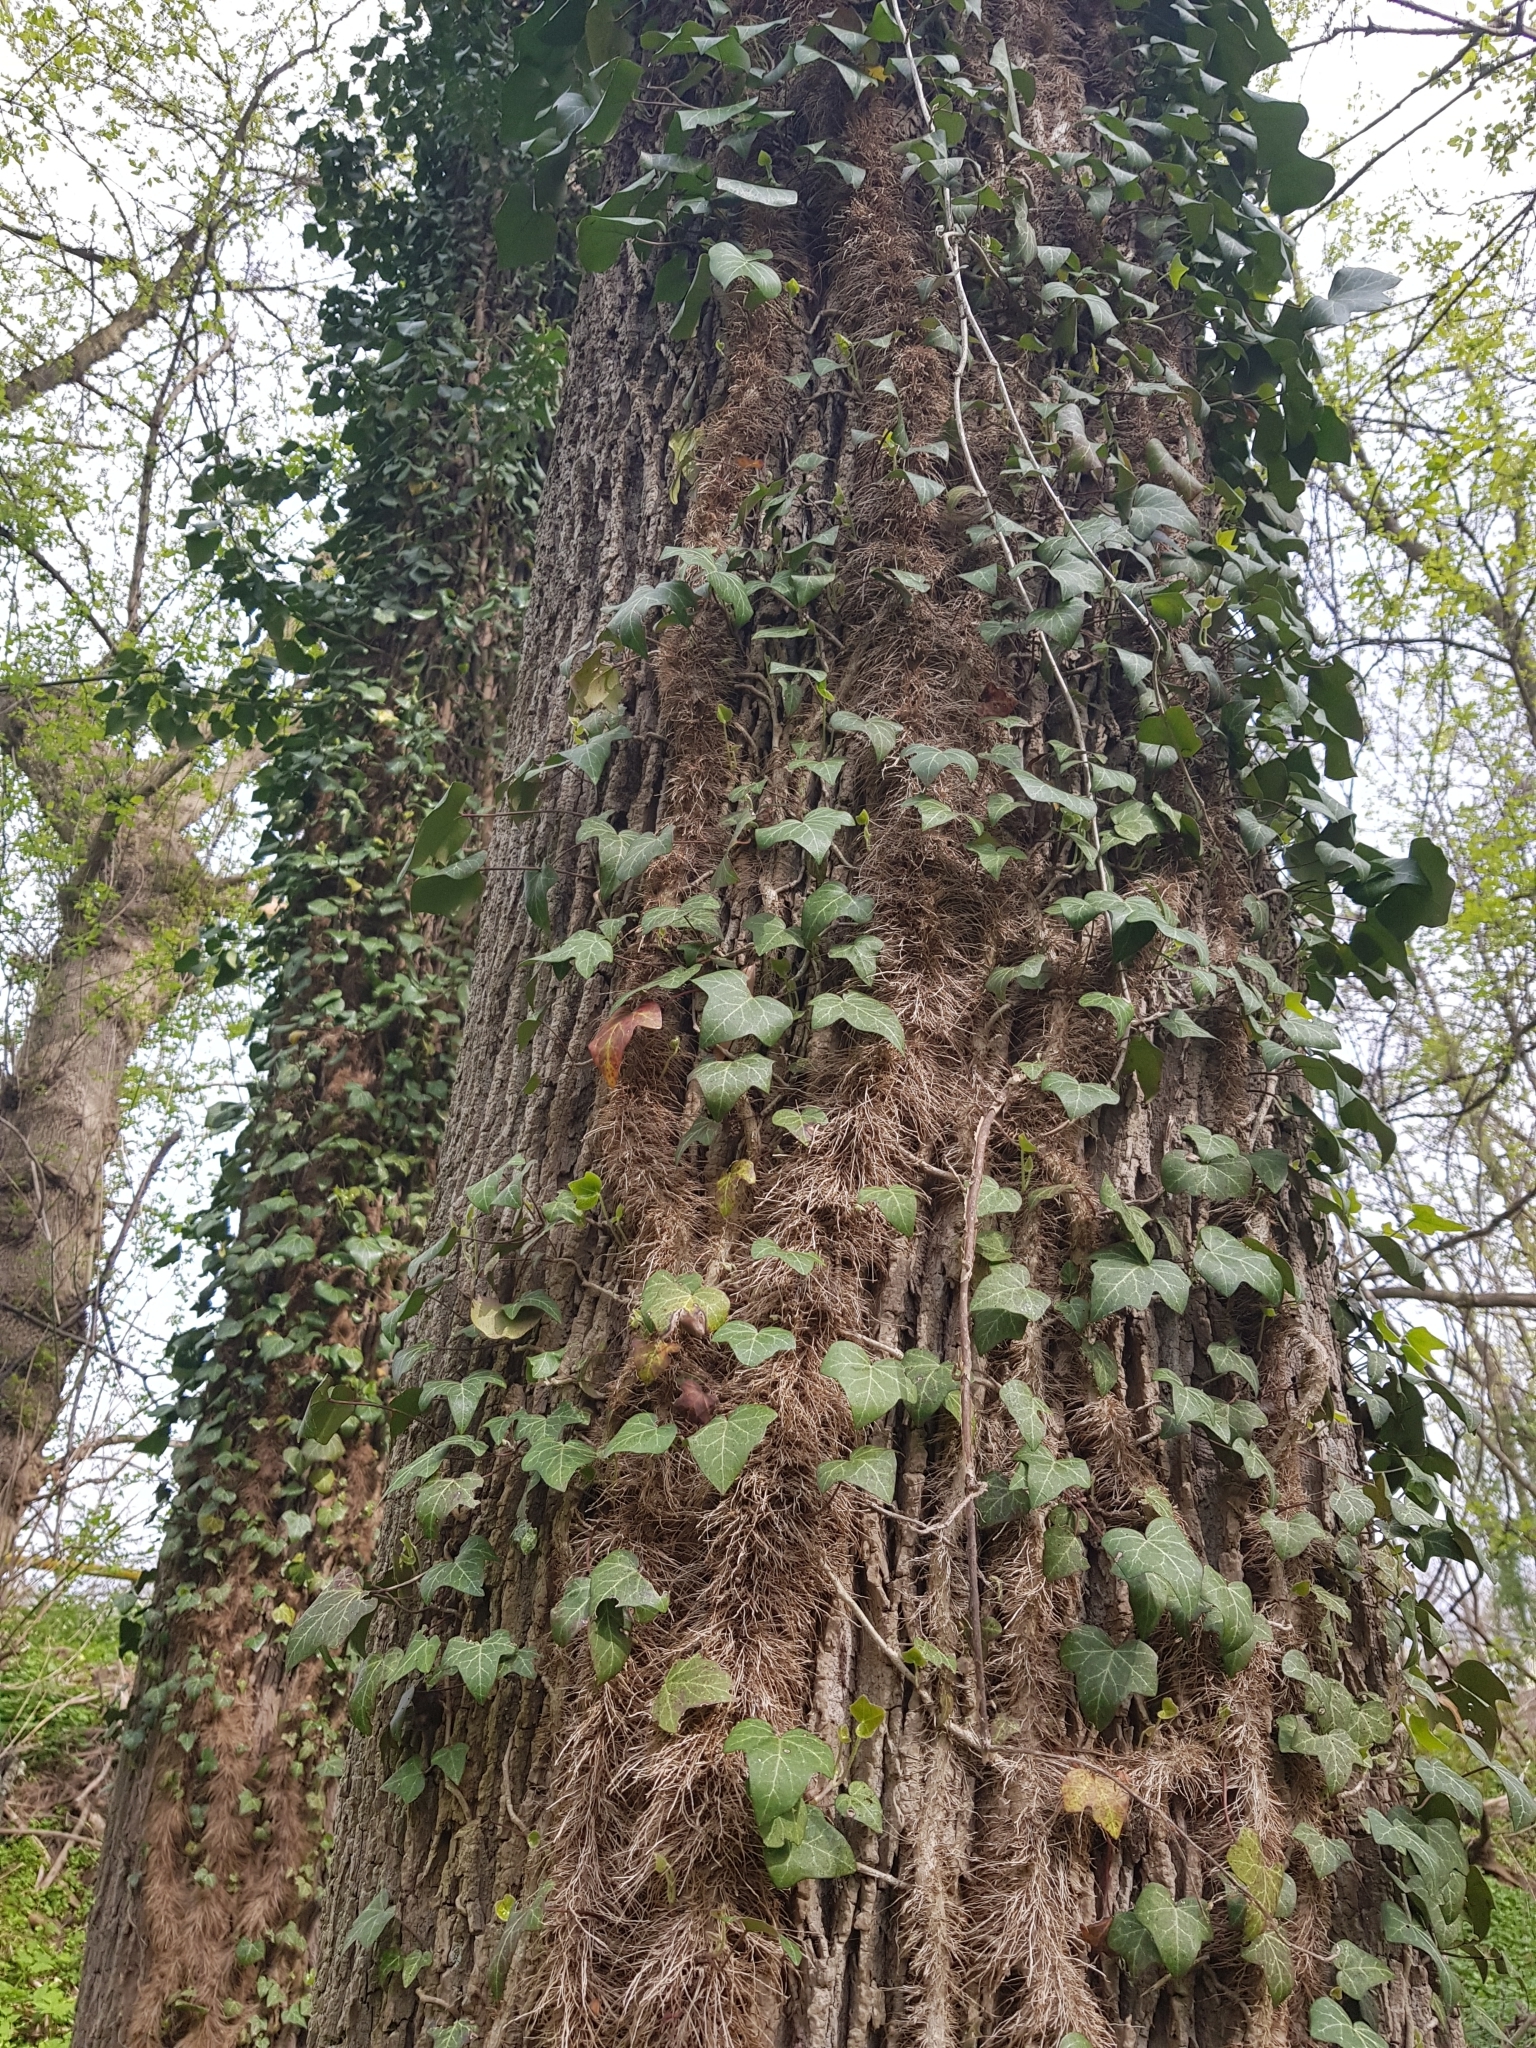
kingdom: Plantae
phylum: Tracheophyta
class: Magnoliopsida
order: Apiales
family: Araliaceae
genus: Hedera
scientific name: Hedera helix
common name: Ivy
